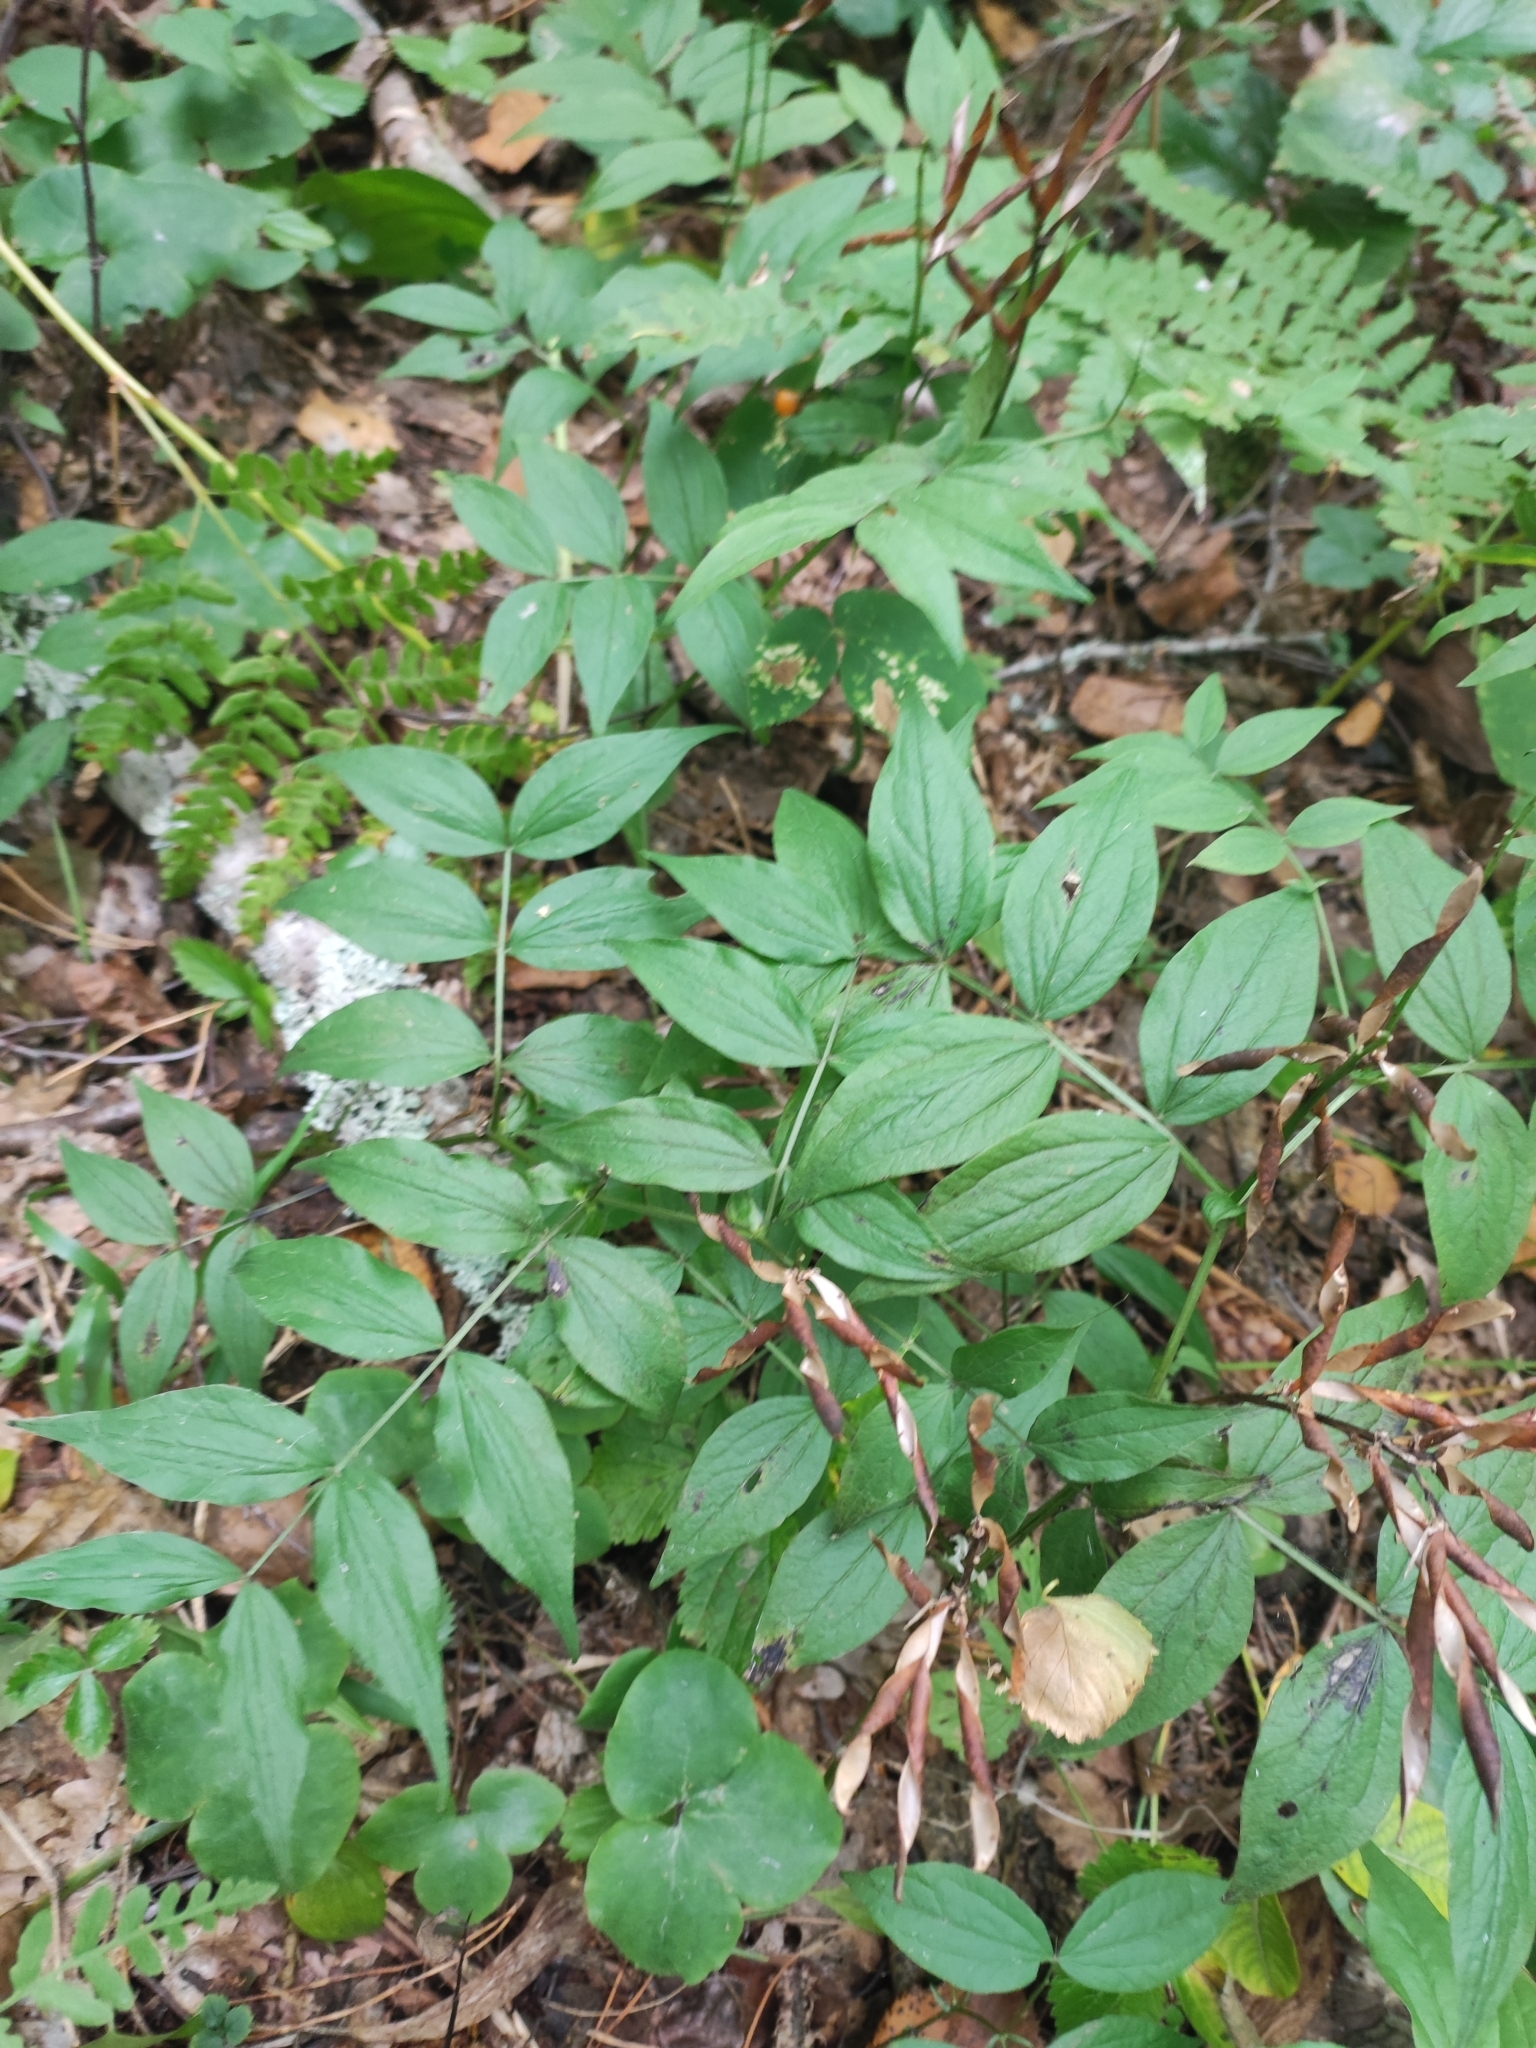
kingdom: Plantae
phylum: Tracheophyta
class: Magnoliopsida
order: Fabales
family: Fabaceae
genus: Lathyrus
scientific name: Lathyrus vernus
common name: Spring pea
